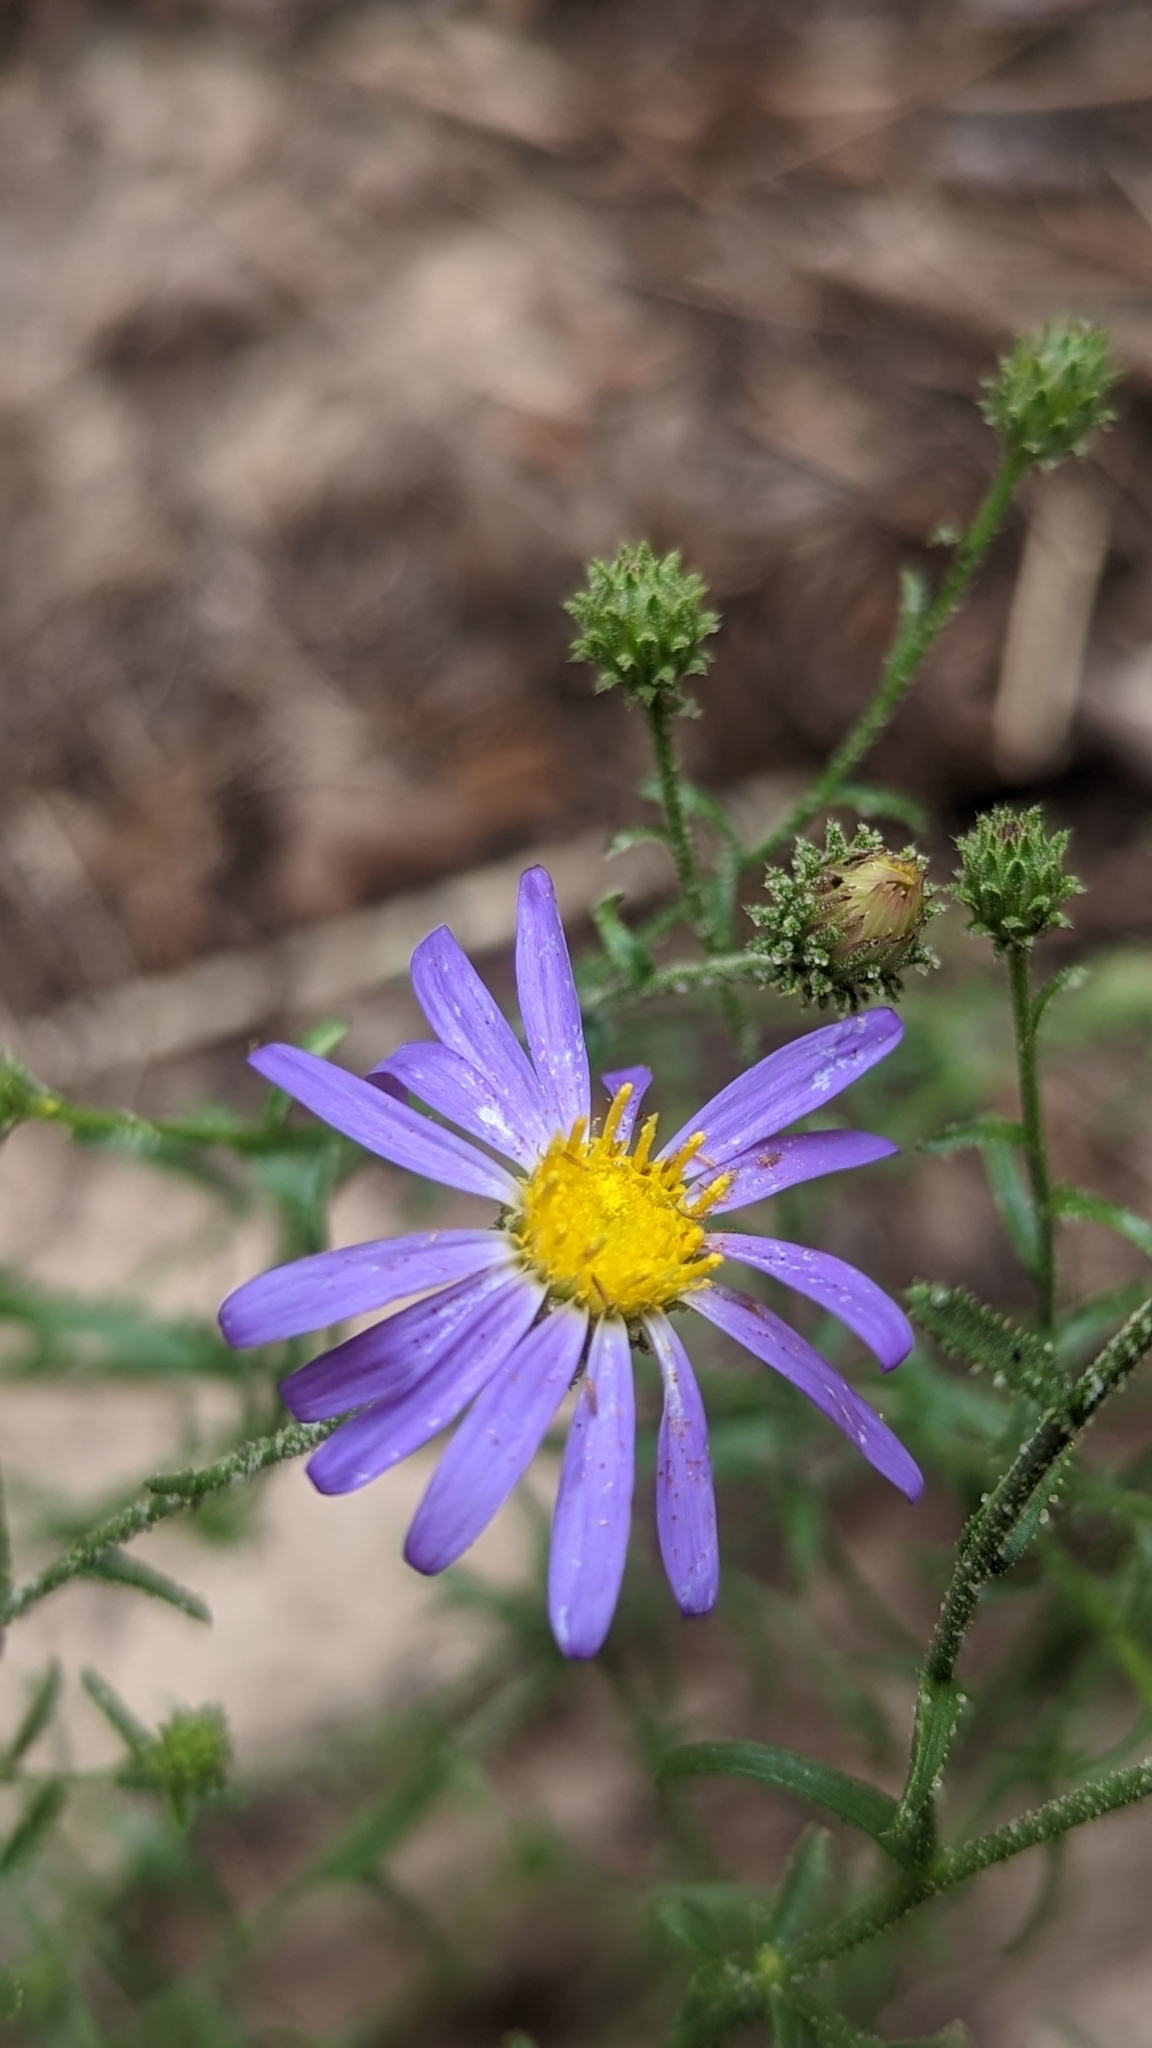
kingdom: Plantae
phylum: Tracheophyta
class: Magnoliopsida
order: Asterales
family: Asteraceae
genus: Dieteria
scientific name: Dieteria canescens
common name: Hoary-aster
